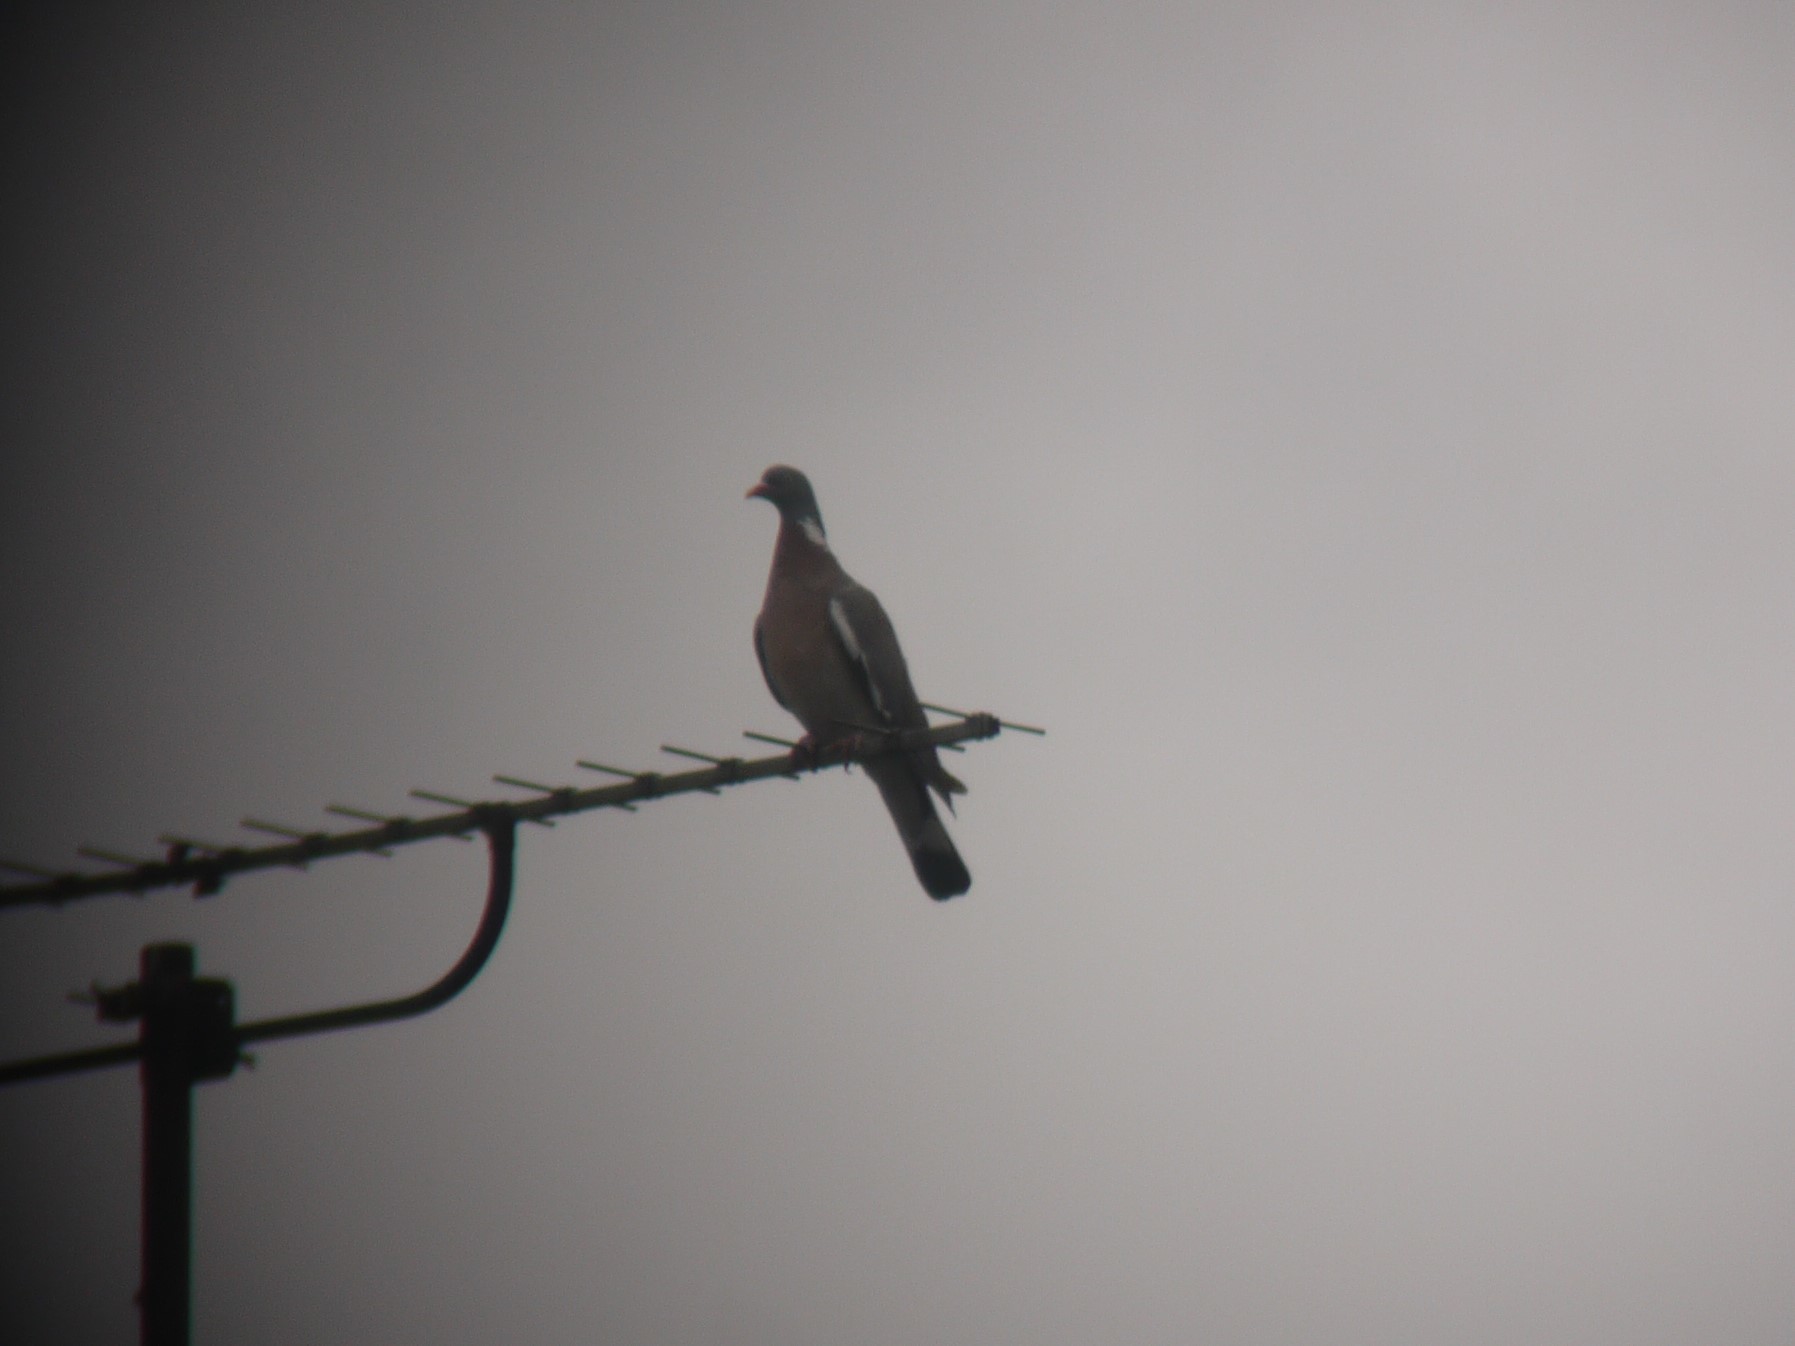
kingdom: Animalia
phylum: Chordata
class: Aves
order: Columbiformes
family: Columbidae
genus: Columba
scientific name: Columba palumbus
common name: Common wood pigeon
